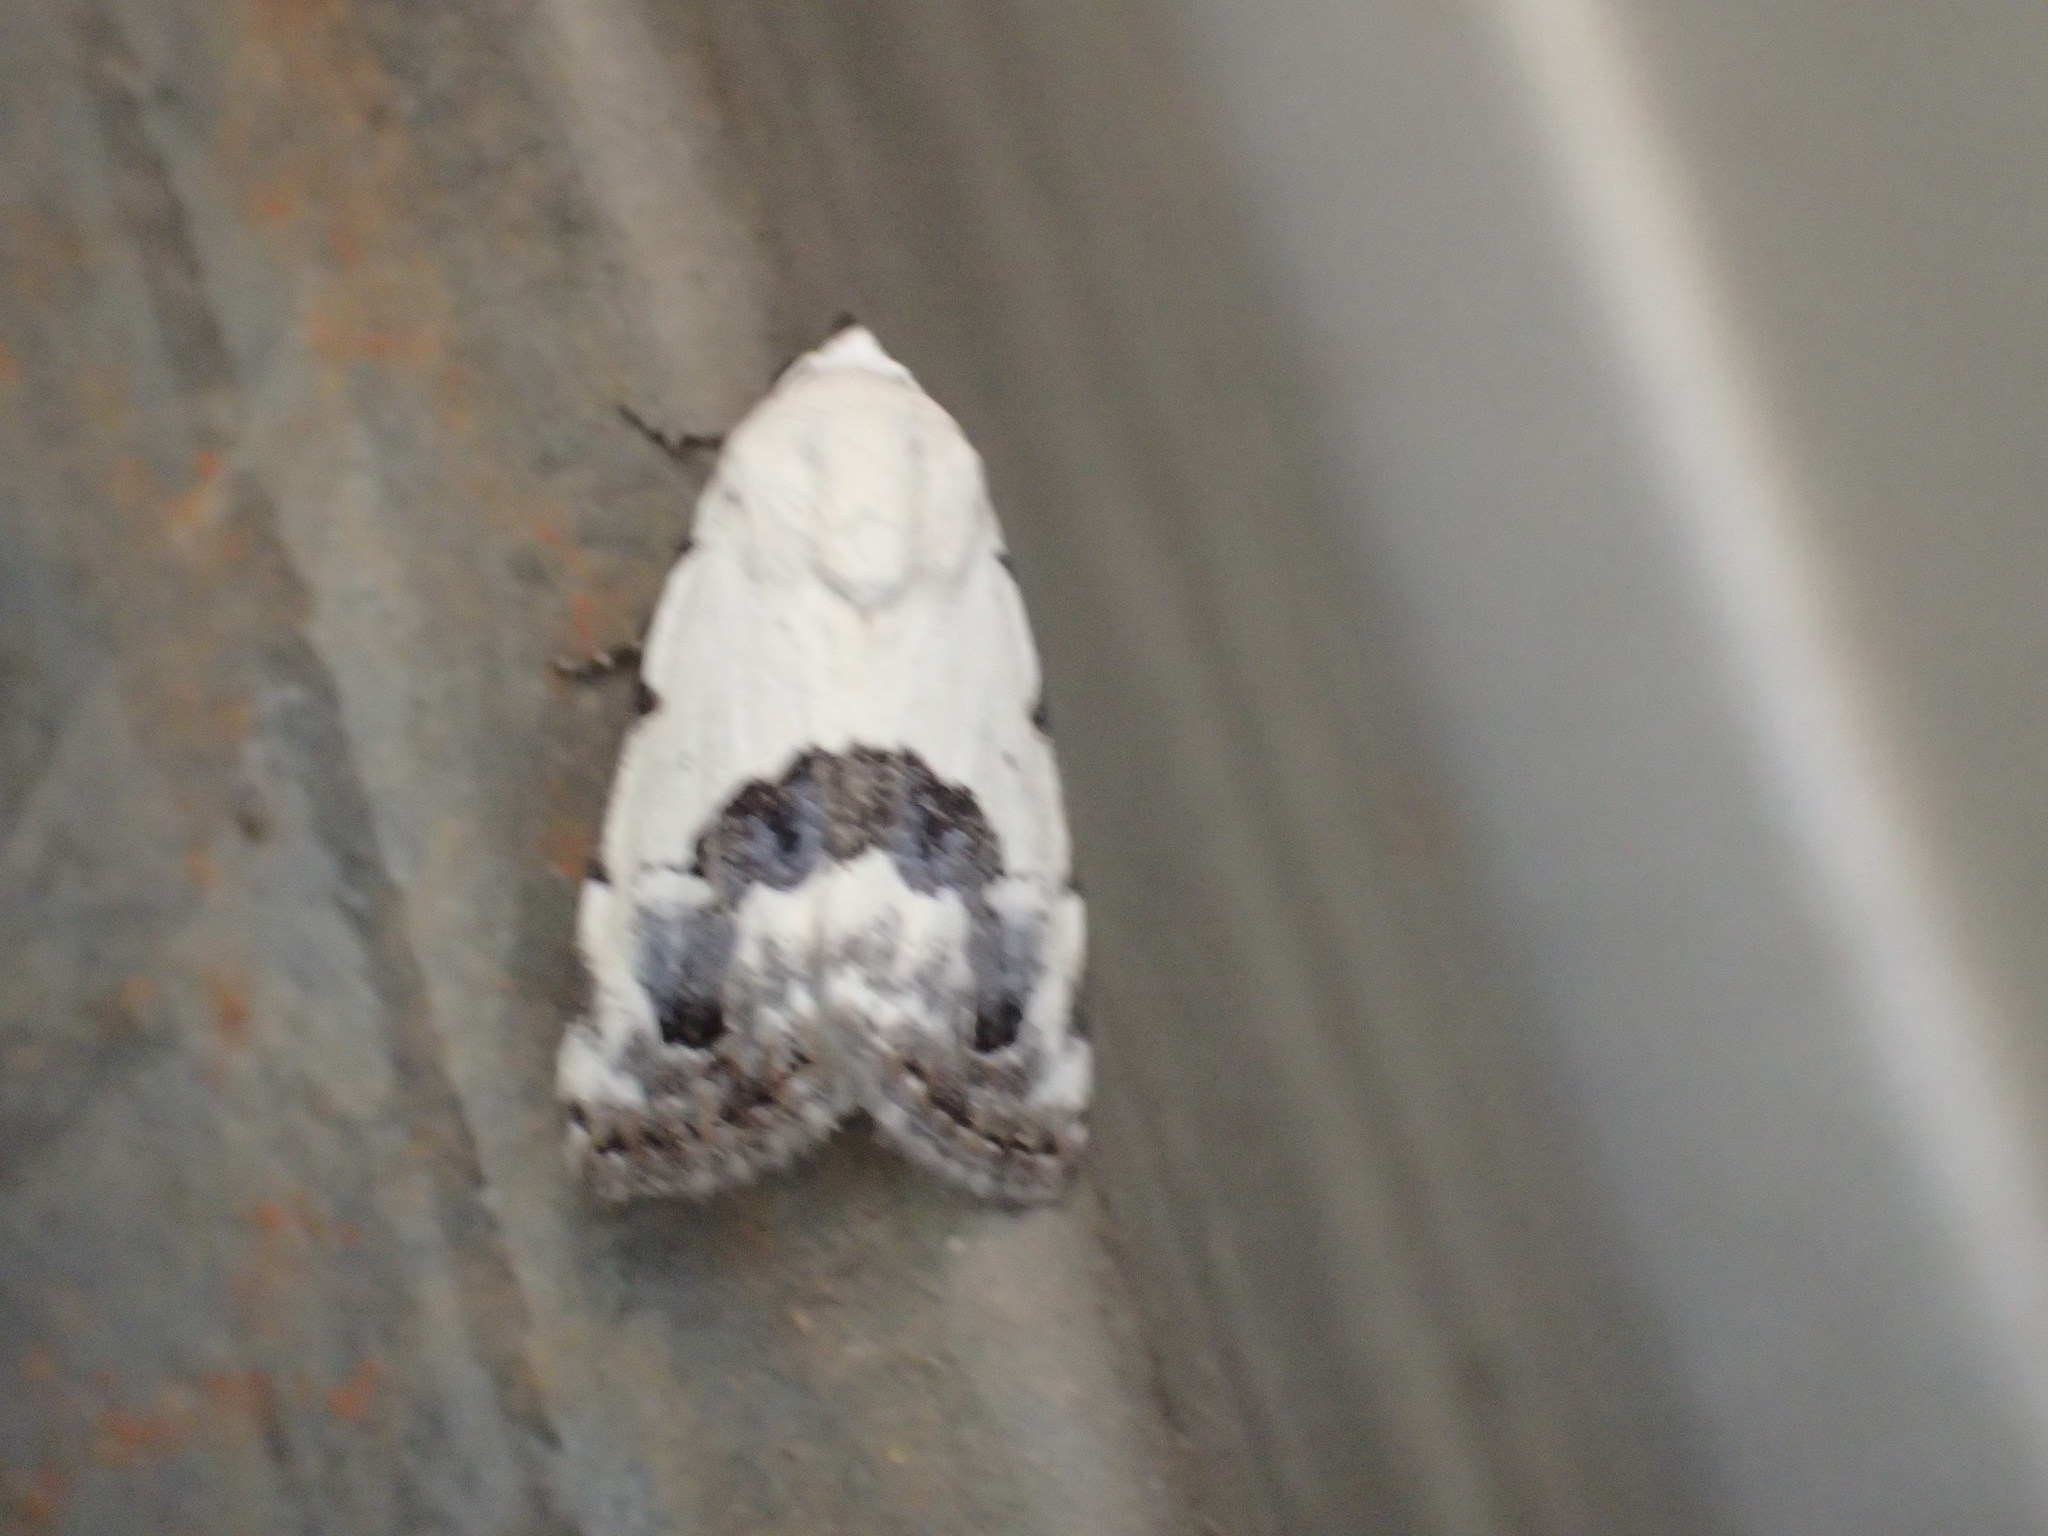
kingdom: Animalia
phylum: Arthropoda
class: Insecta
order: Lepidoptera
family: Nolidae
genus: Armactica
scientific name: Armactica conchidia
